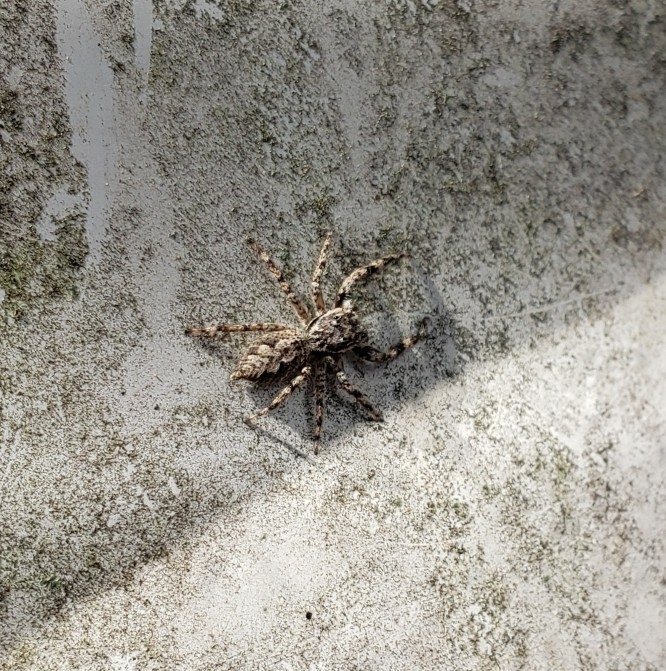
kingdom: Animalia
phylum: Arthropoda
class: Arachnida
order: Araneae
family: Salticidae
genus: Platycryptus
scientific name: Platycryptus undatus
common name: Tan jumping spider
